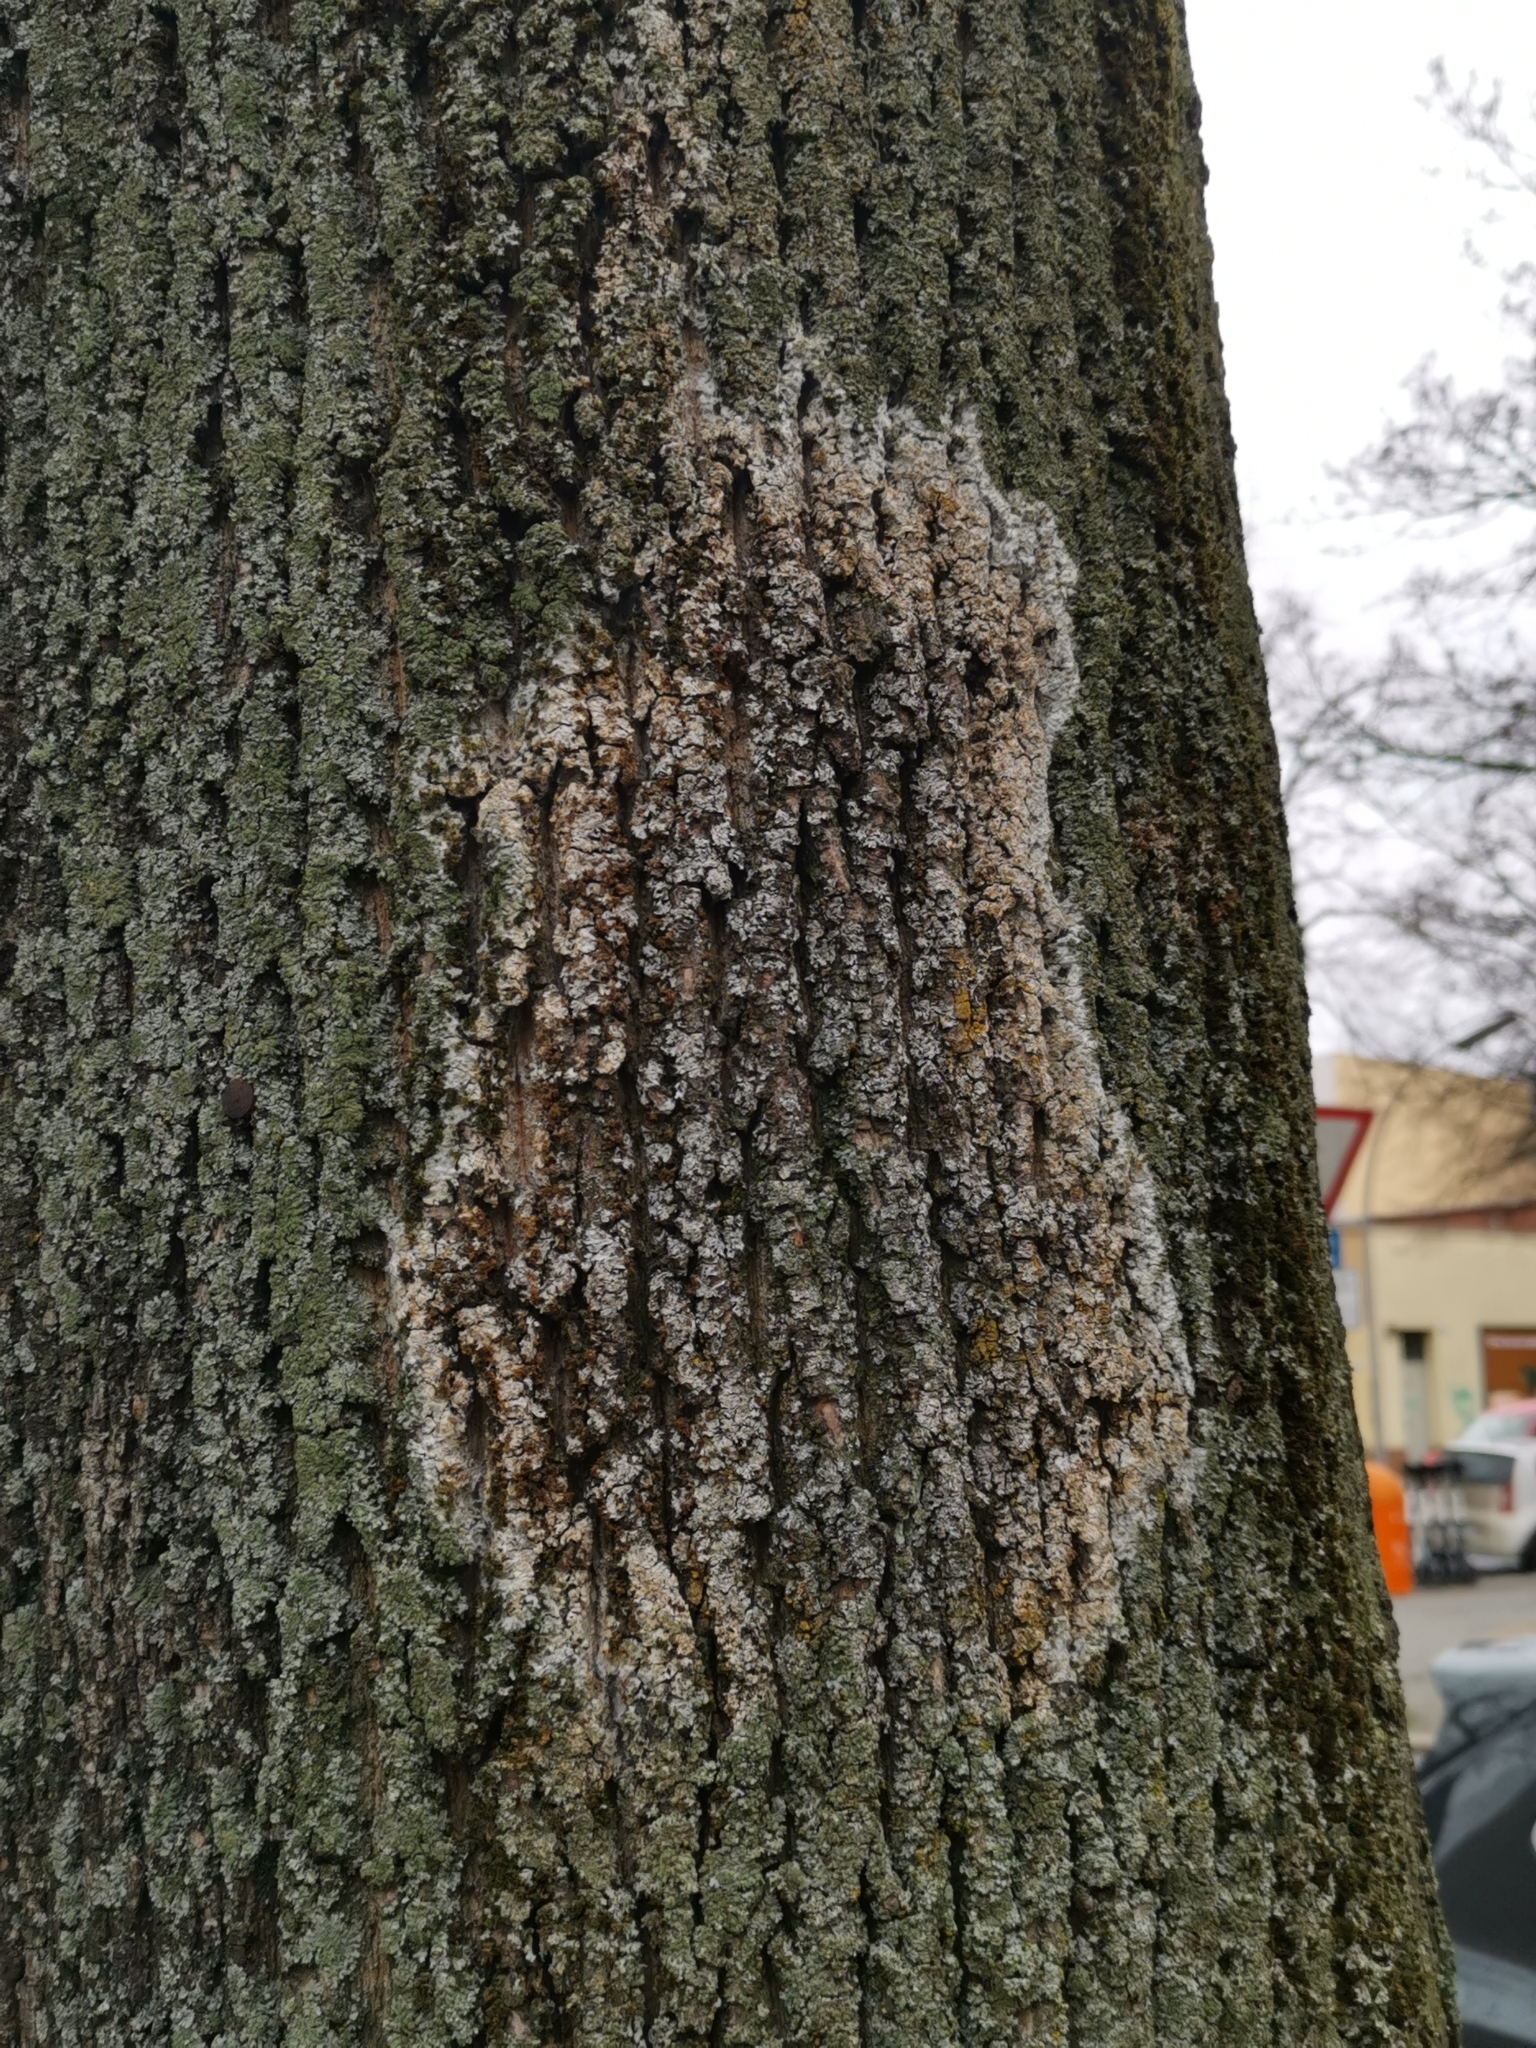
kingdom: Fungi
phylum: Basidiomycota
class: Agaricomycetes
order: Atheliales
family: Atheliaceae
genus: Athelia
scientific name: Athelia arachnoidea
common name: Candelabra duster
